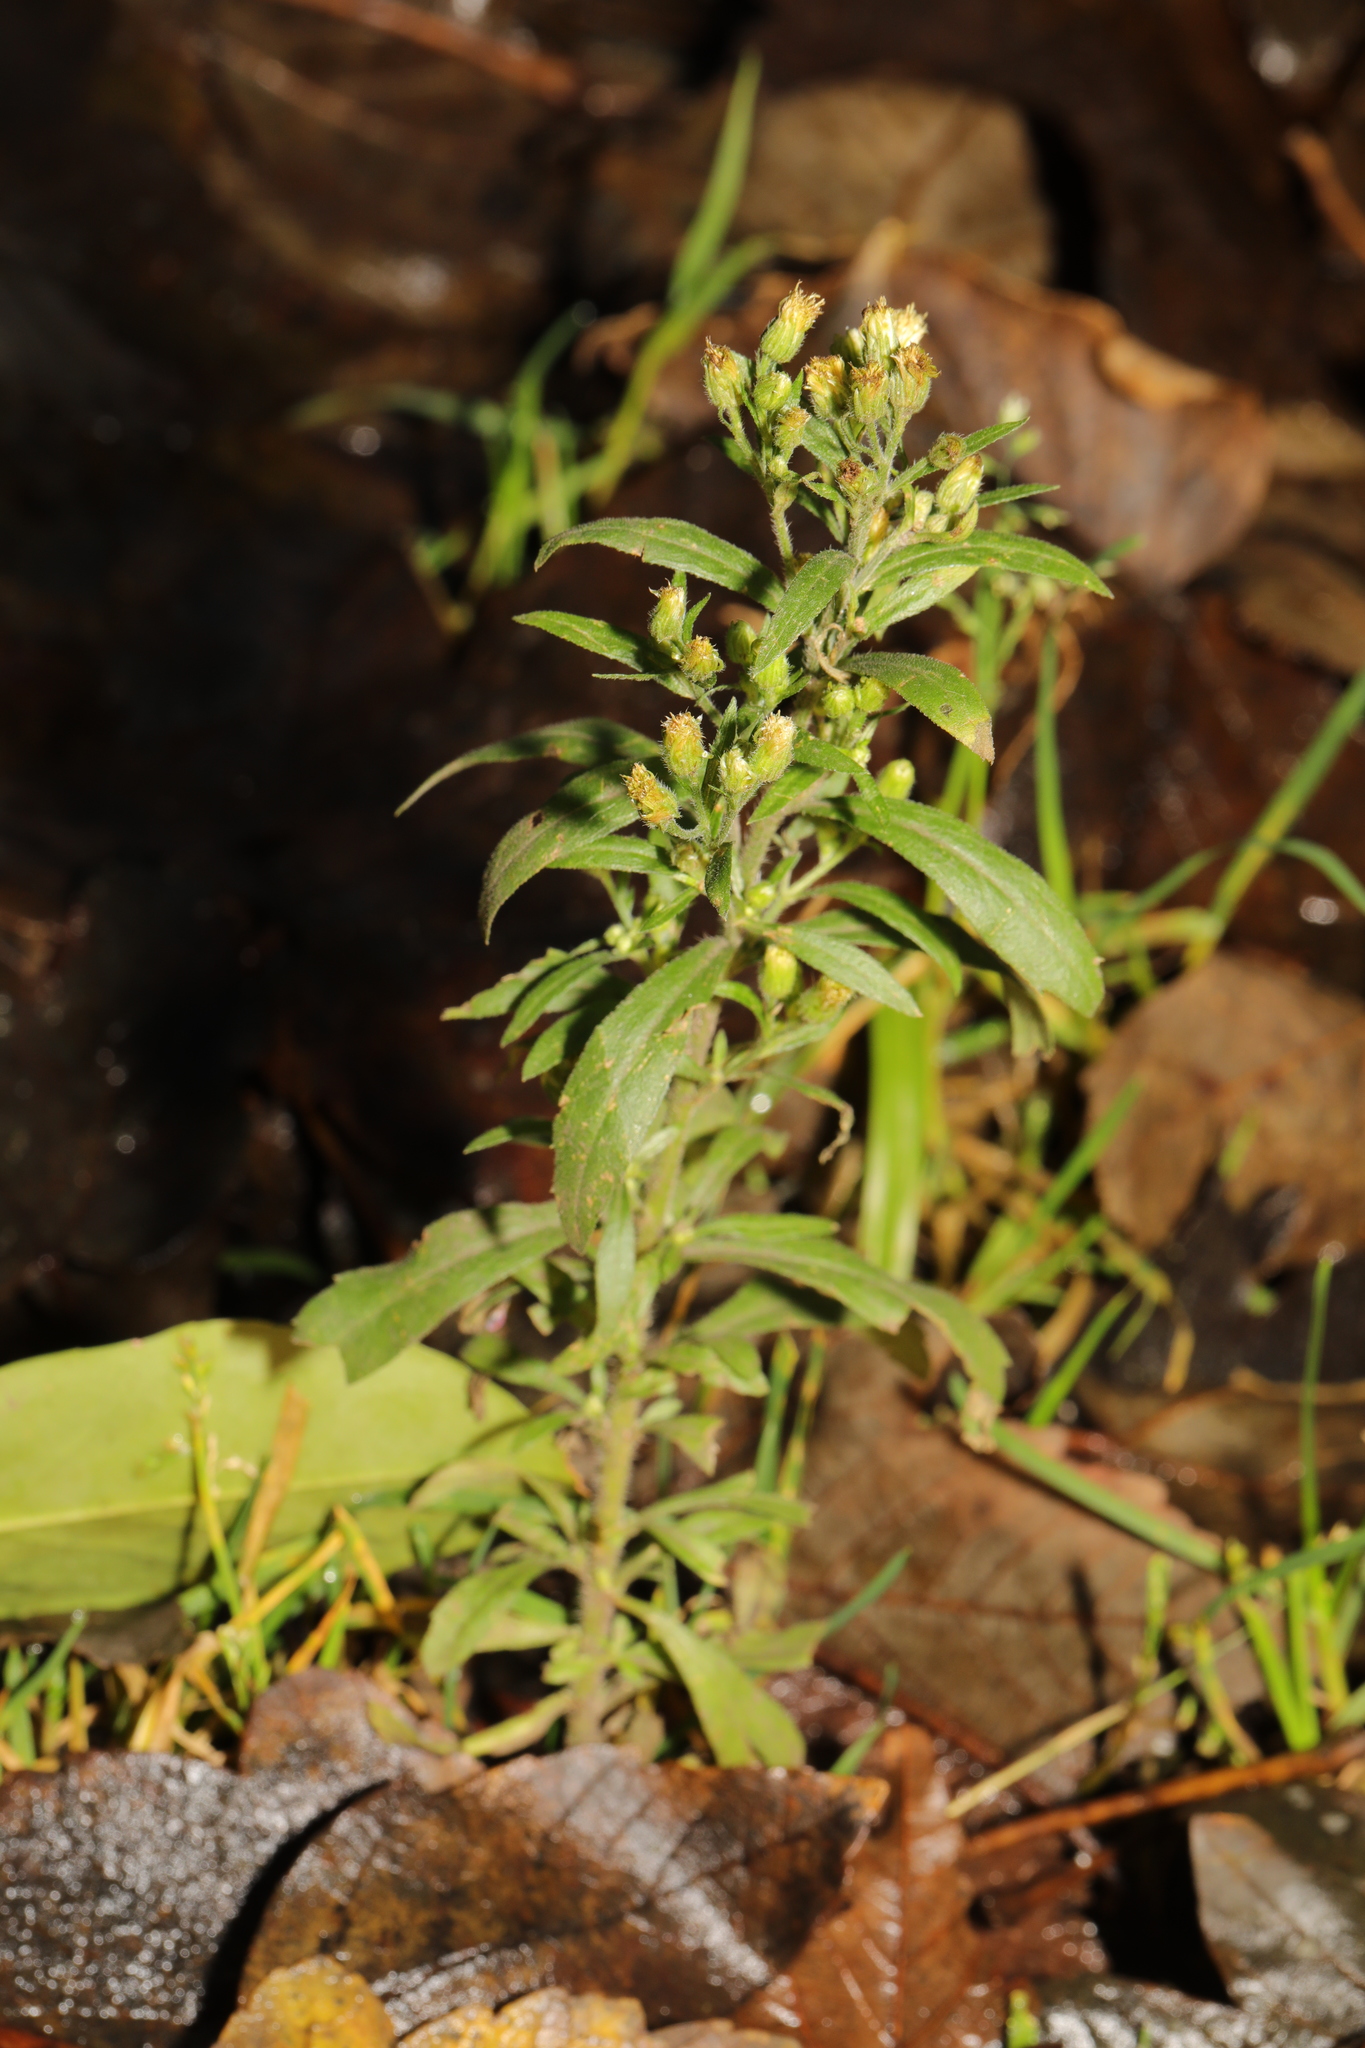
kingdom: Plantae
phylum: Tracheophyta
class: Magnoliopsida
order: Asterales
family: Asteraceae
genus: Erigeron
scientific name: Erigeron canadensis
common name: Canadian fleabane
